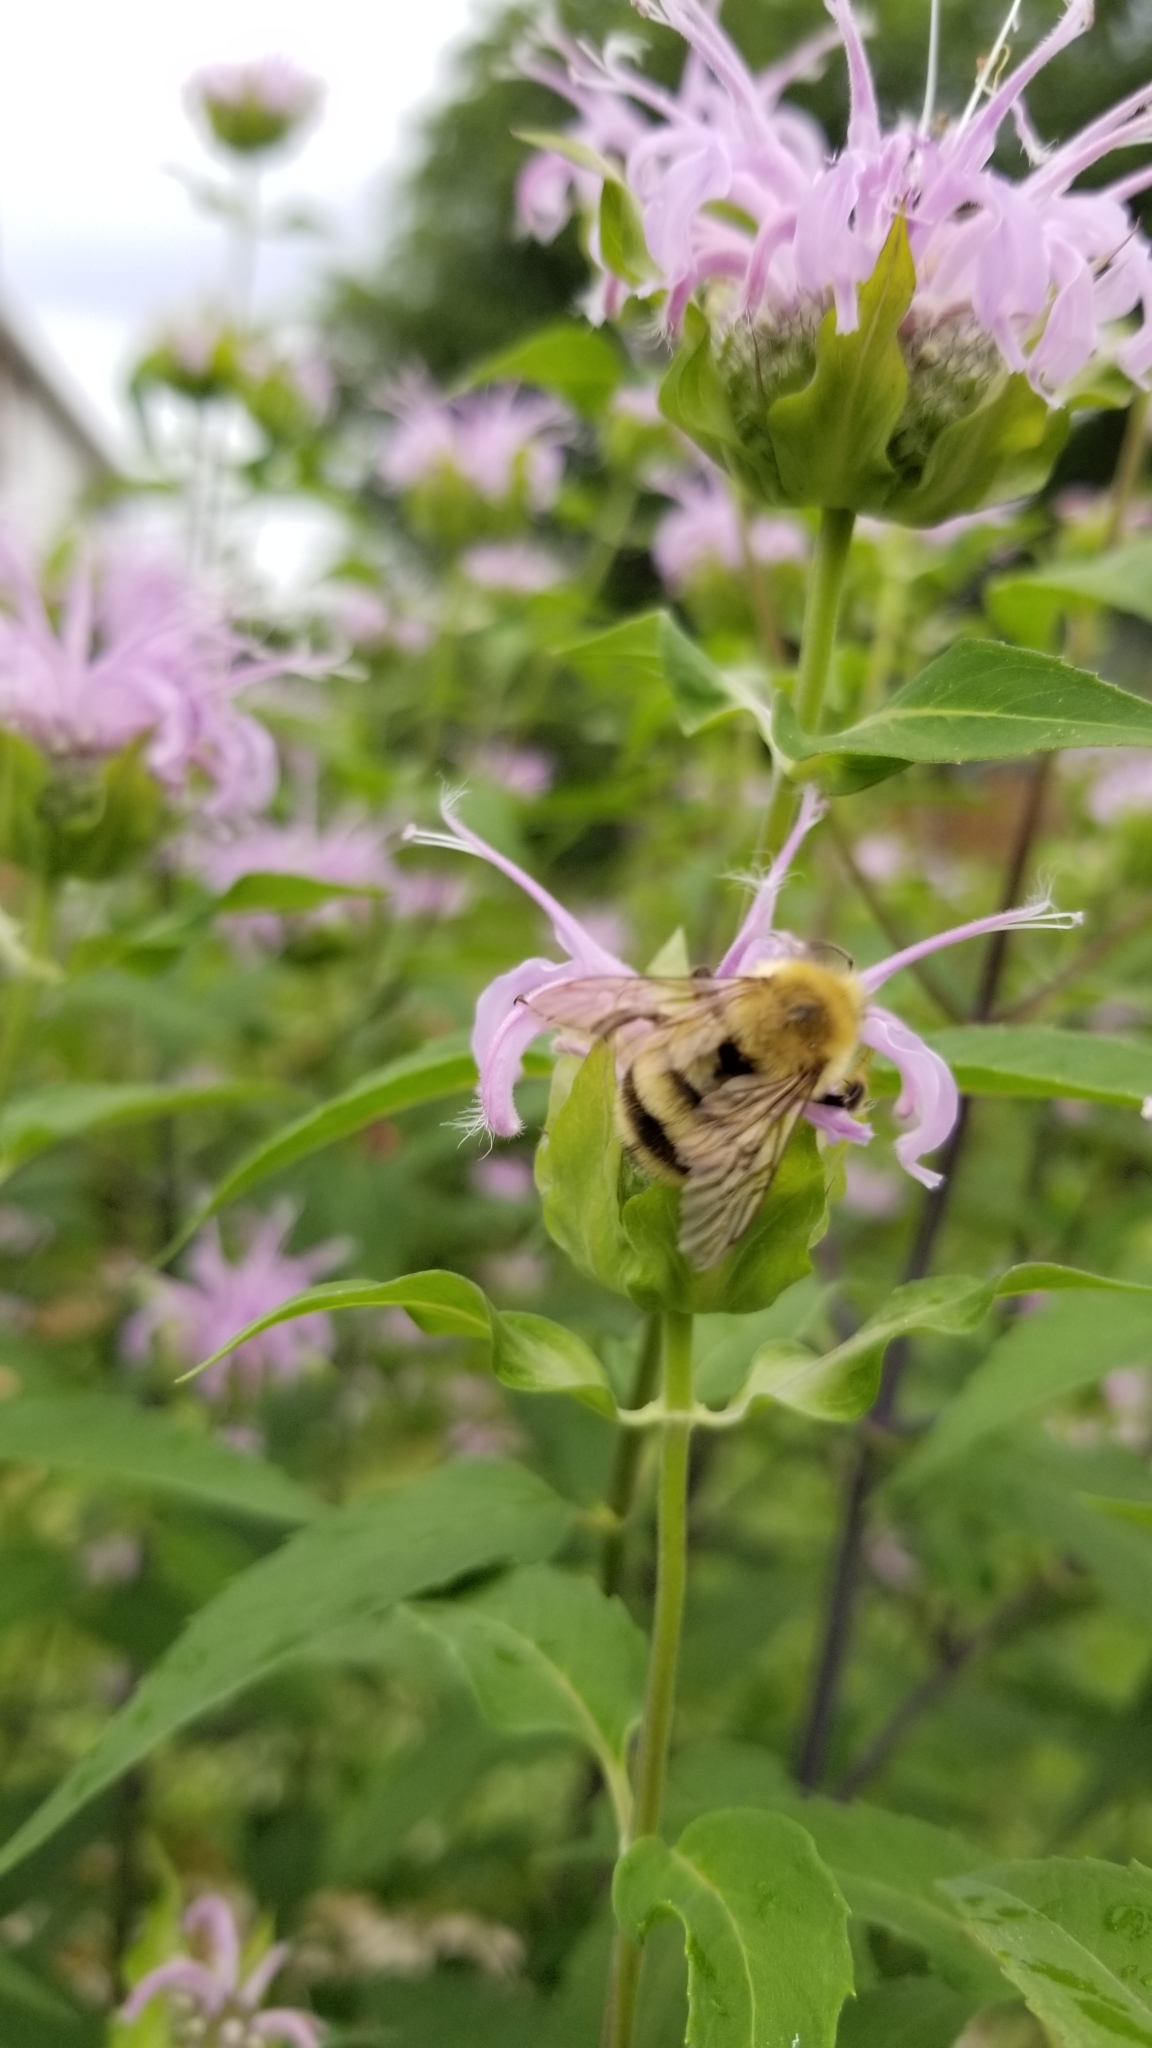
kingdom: Animalia
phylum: Arthropoda
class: Insecta
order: Hymenoptera
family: Apidae
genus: Bombus
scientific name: Bombus bimaculatus
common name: Two-spotted bumble bee
